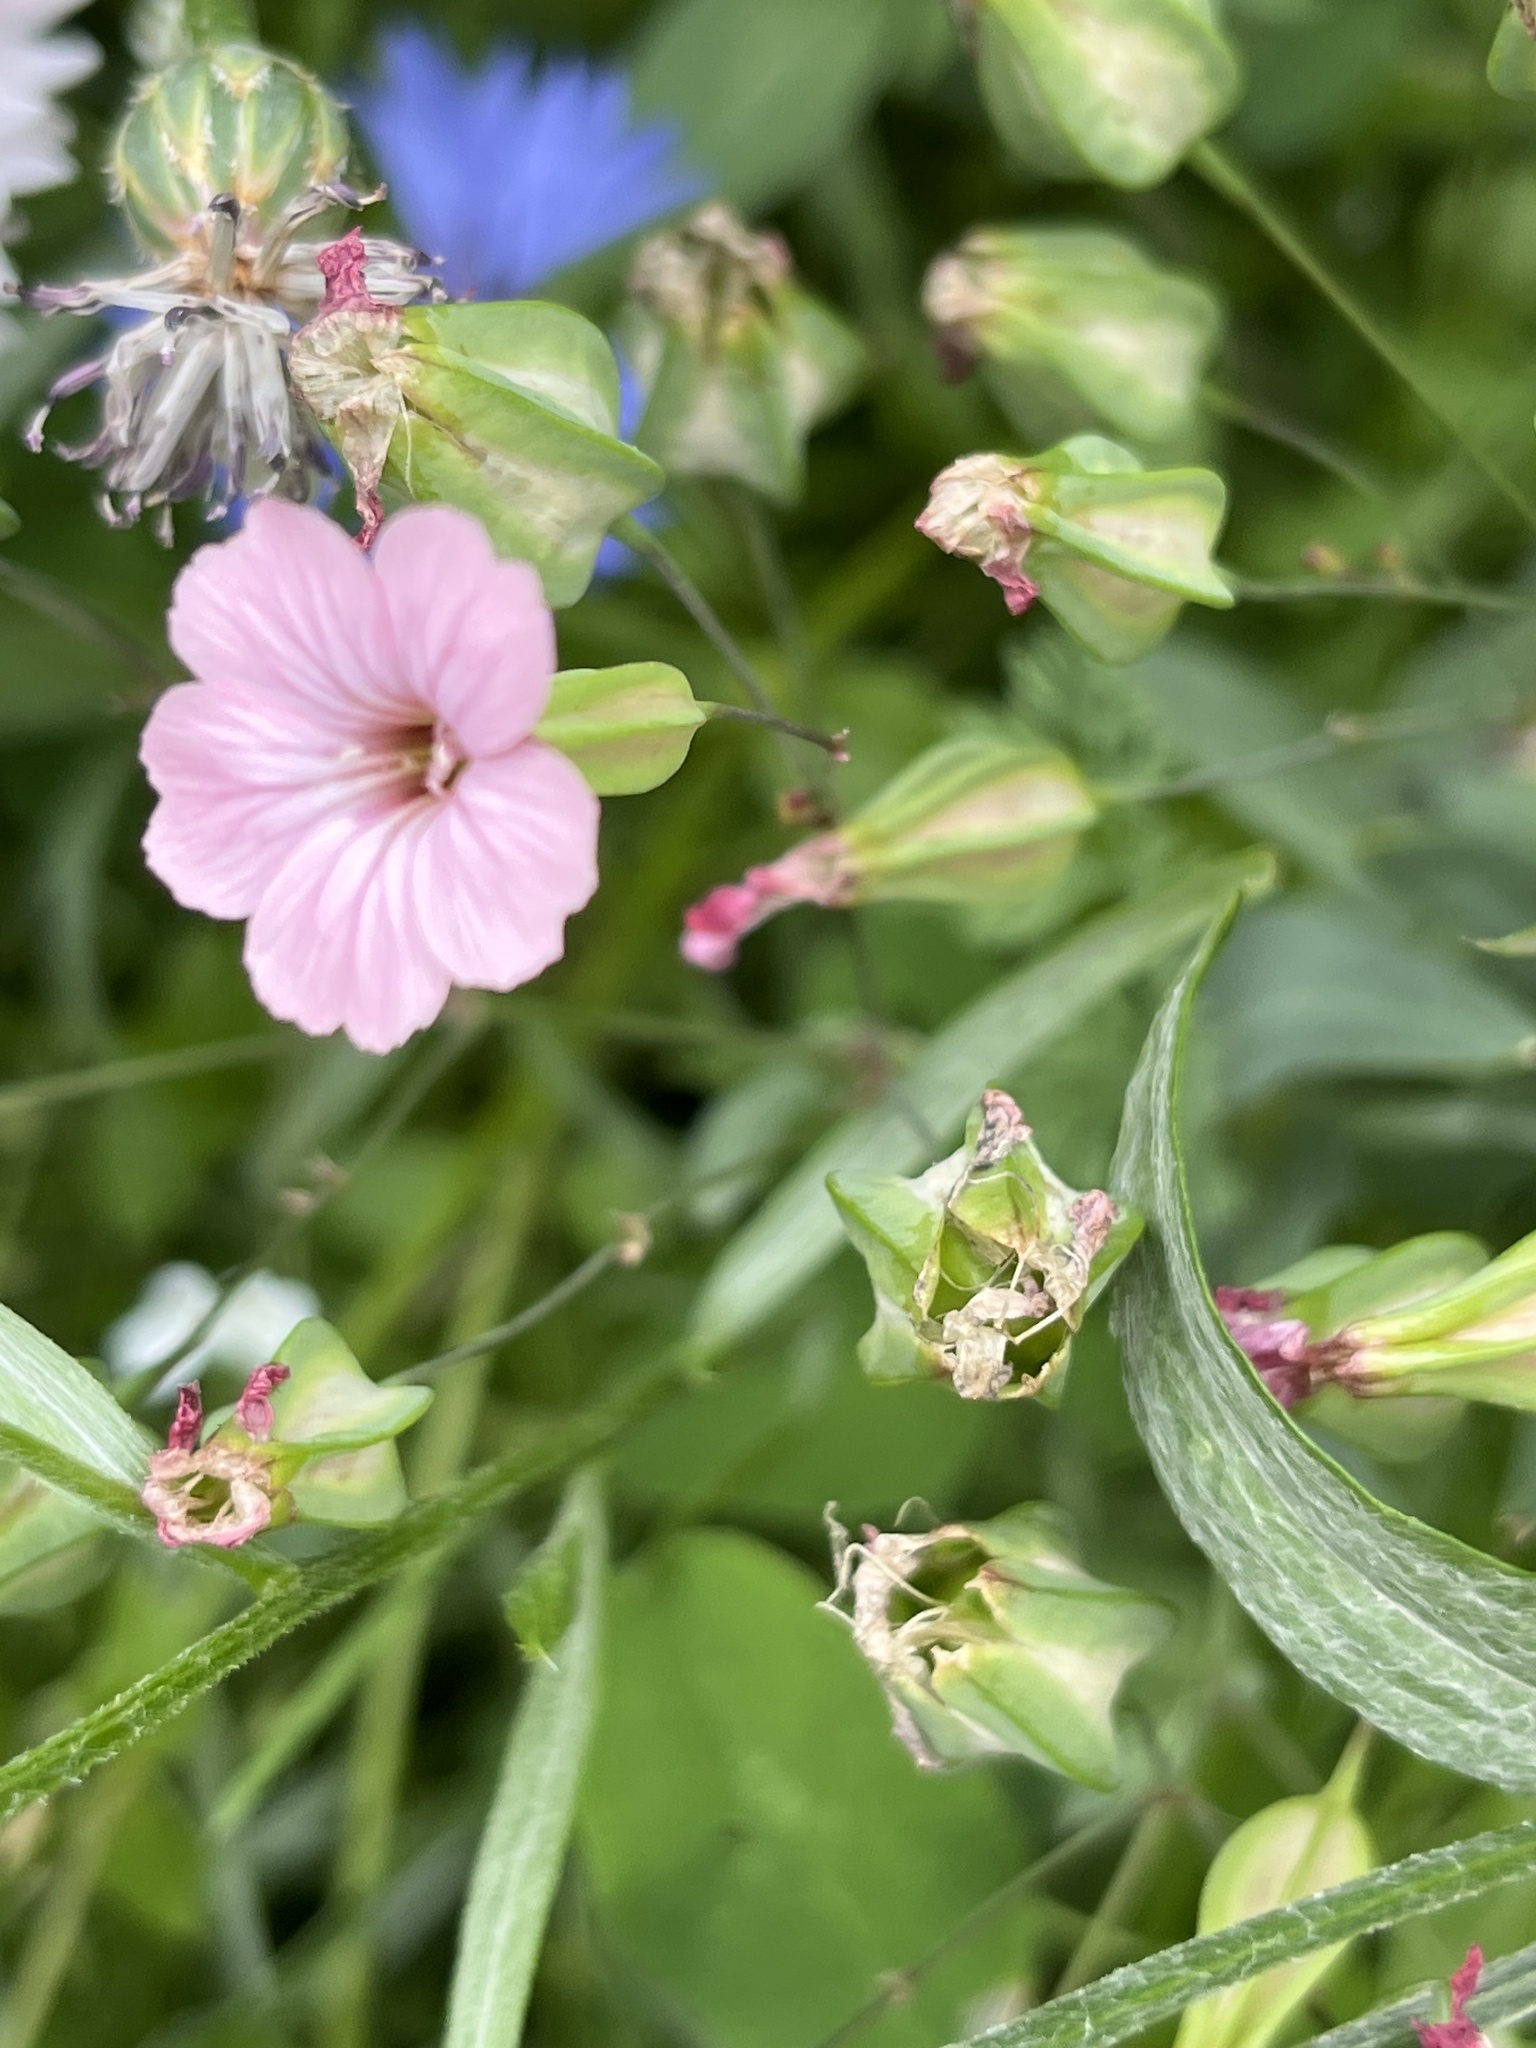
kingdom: Plantae
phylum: Tracheophyta
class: Magnoliopsida
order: Caryophyllales
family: Caryophyllaceae
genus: Gypsophila
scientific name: Gypsophila vaccaria
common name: Cow soapwort
